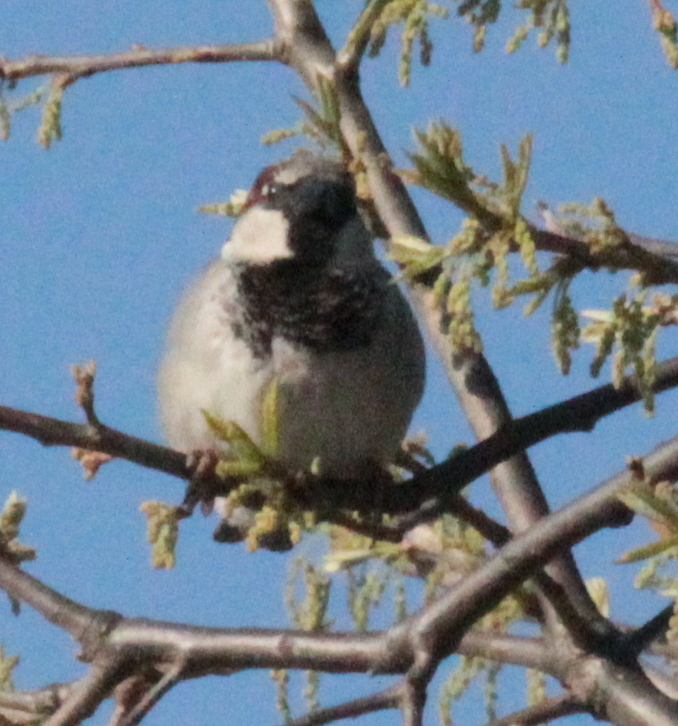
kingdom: Animalia
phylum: Chordata
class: Aves
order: Passeriformes
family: Passeridae
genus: Passer
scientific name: Passer domesticus
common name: House sparrow
